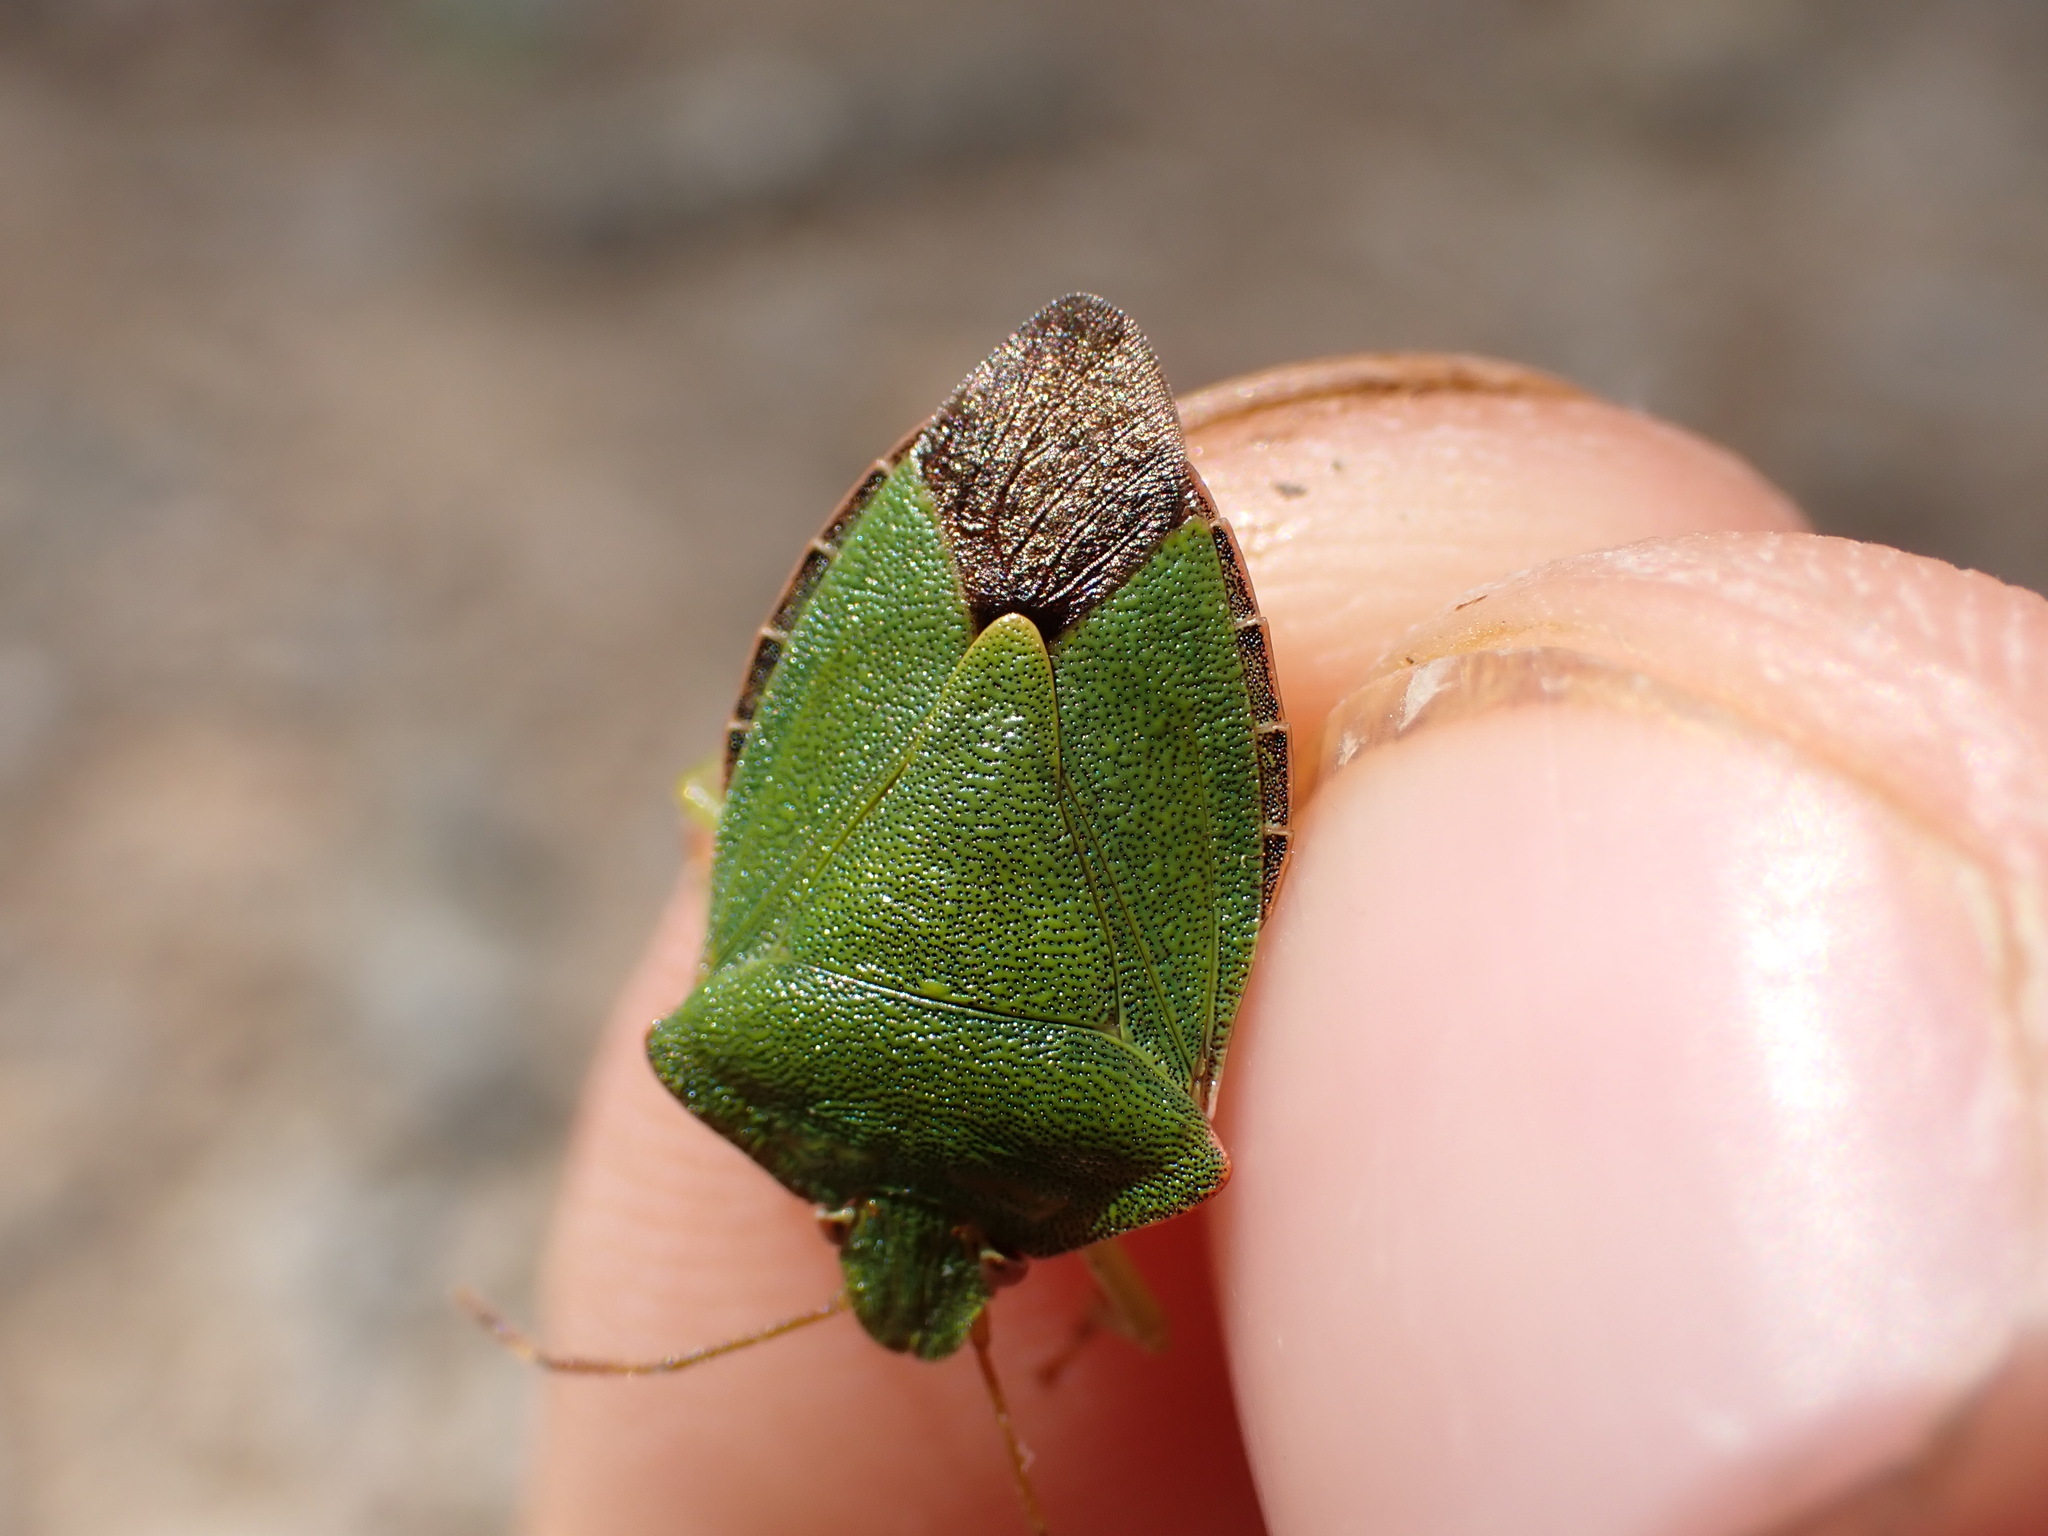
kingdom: Animalia
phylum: Arthropoda
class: Insecta
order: Hemiptera
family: Pentatomidae
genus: Palomena
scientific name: Palomena prasina
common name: Green shieldbug
